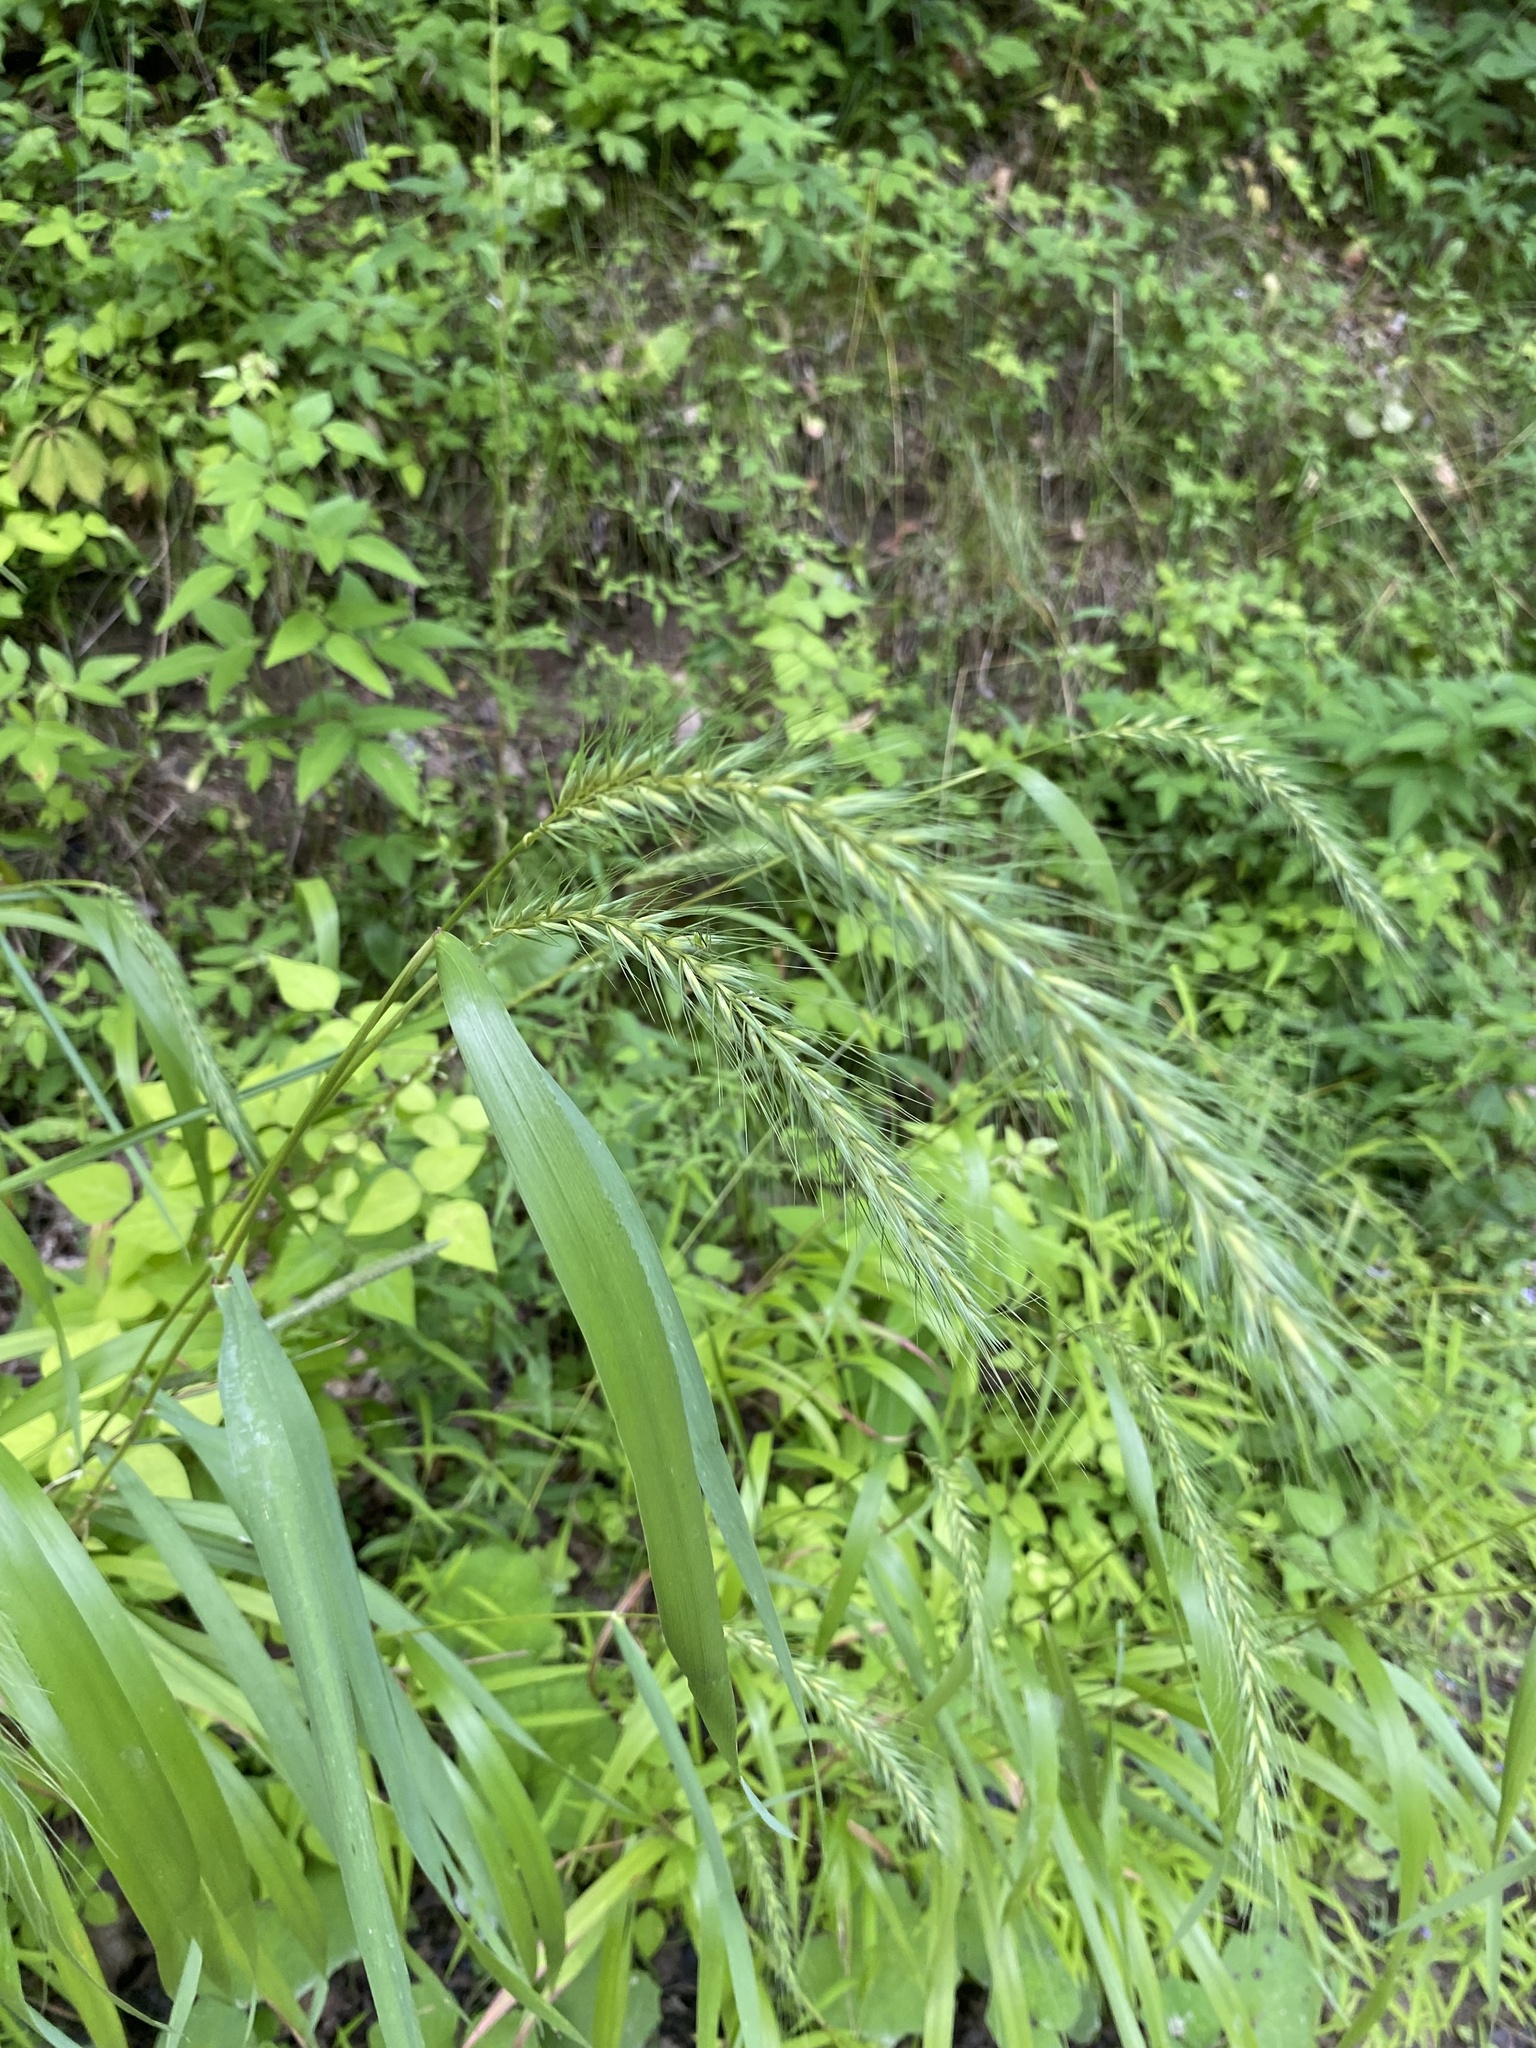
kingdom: Plantae
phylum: Tracheophyta
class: Liliopsida
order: Poales
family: Poaceae
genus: Elymus
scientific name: Elymus riparius
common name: Eastern riverbank wild rye
